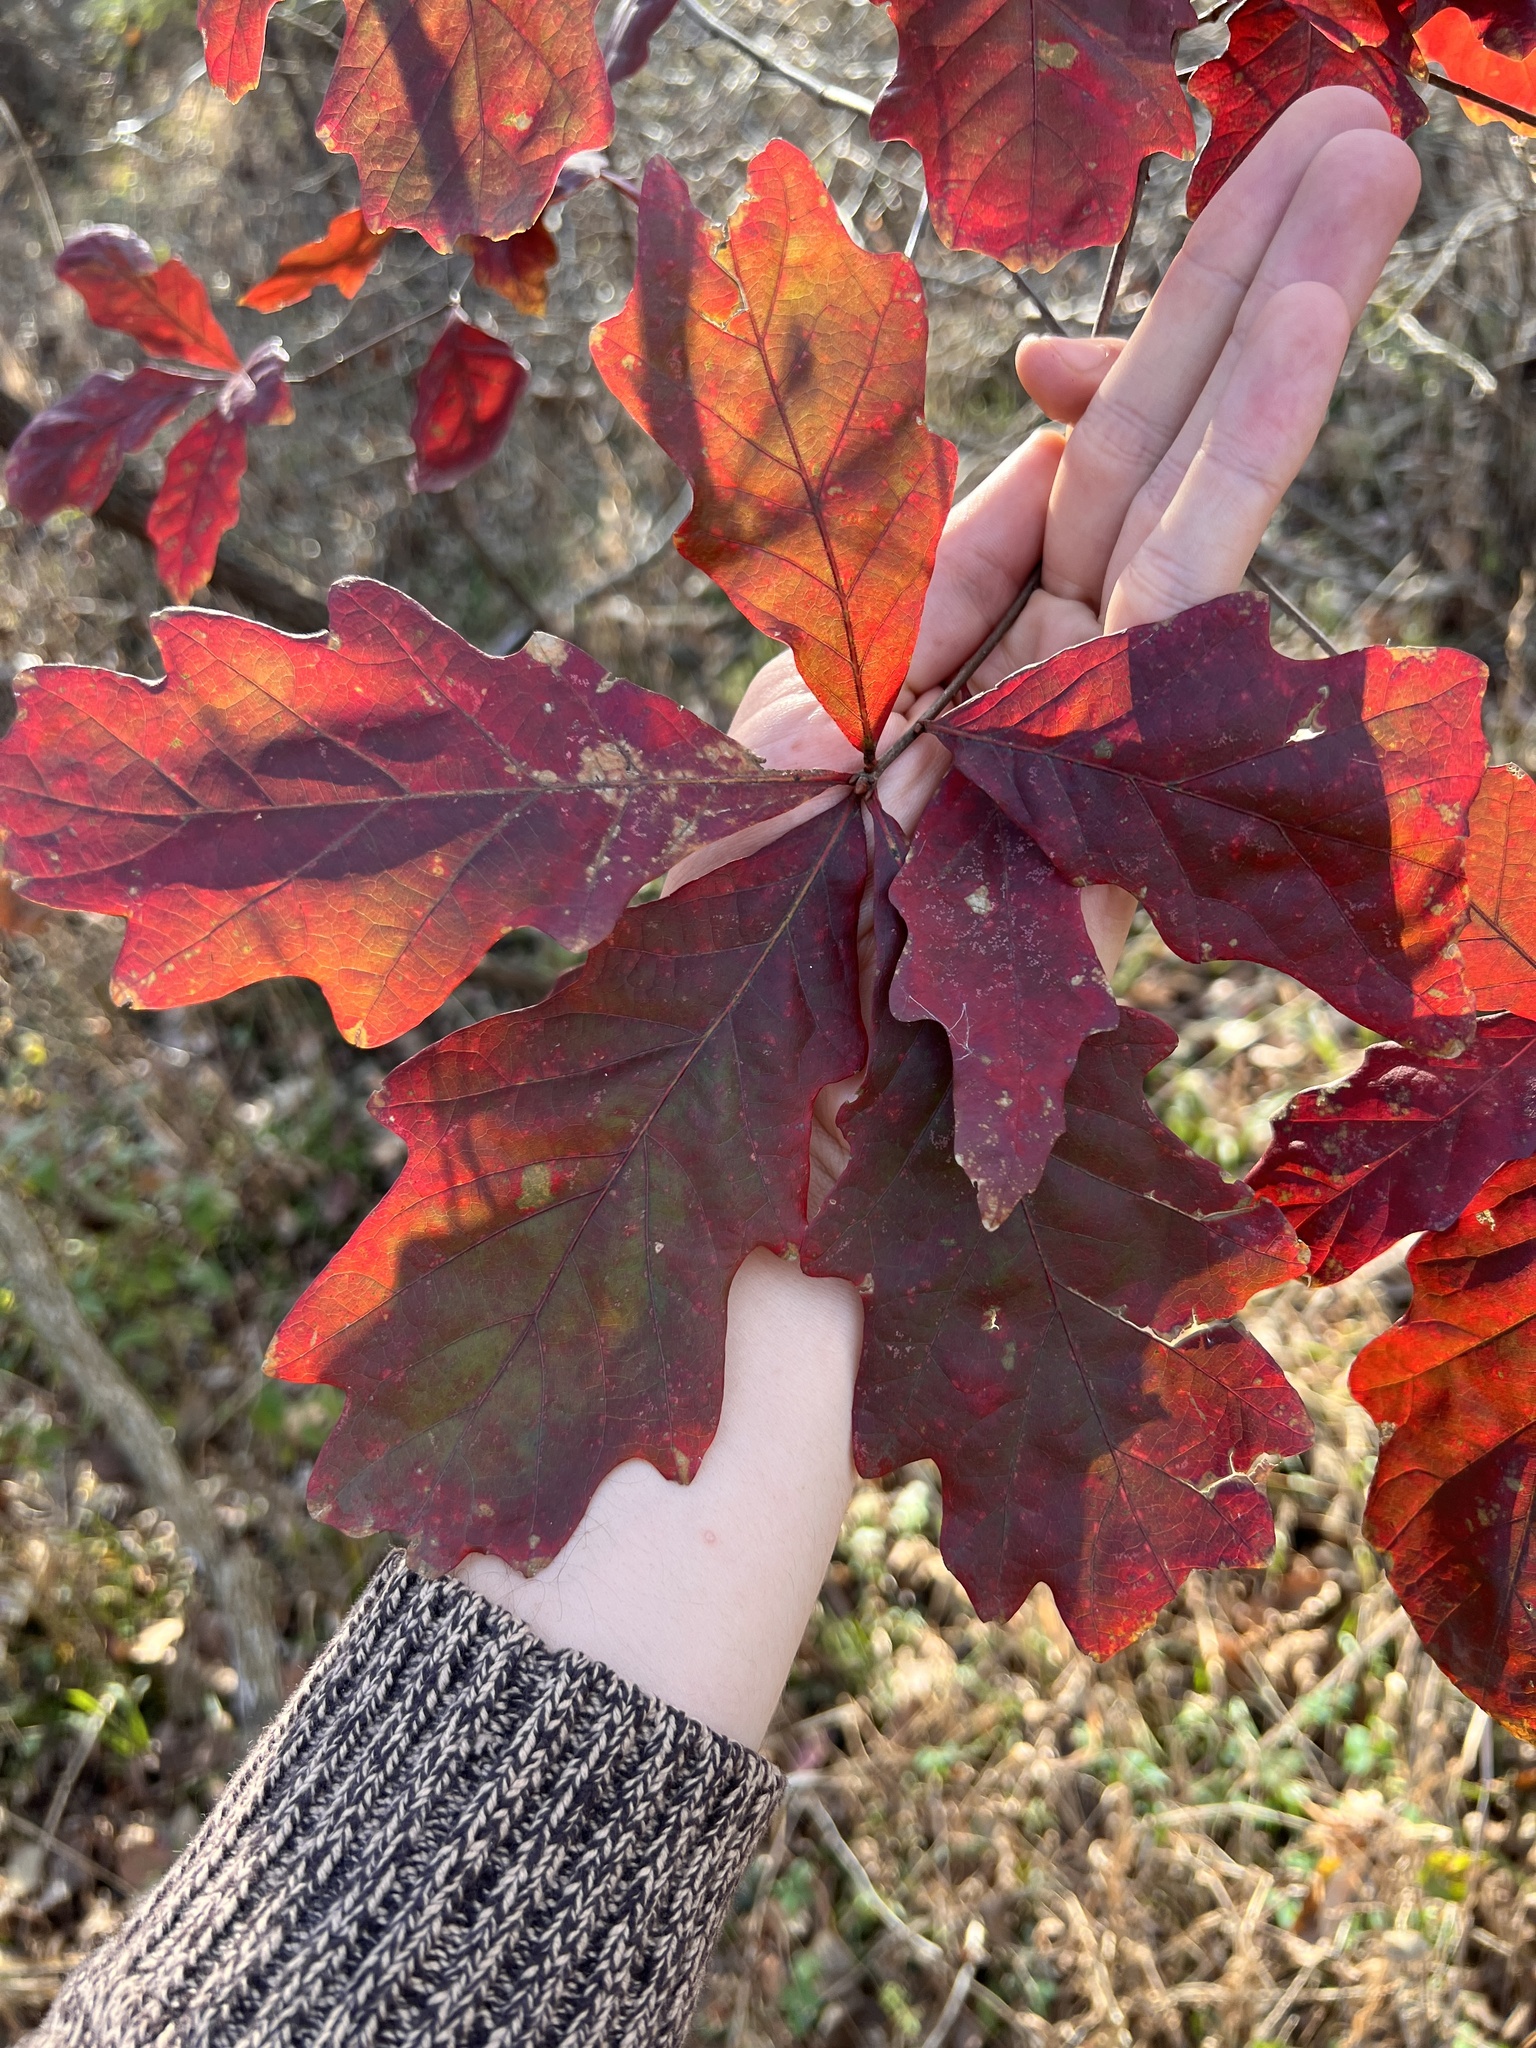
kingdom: Plantae
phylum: Tracheophyta
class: Magnoliopsida
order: Fagales
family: Fagaceae
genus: Quercus
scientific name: Quercus bicolor
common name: Swamp white oak
